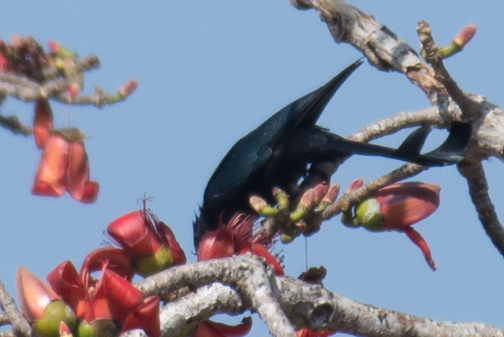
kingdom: Animalia
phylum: Chordata
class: Aves
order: Passeriformes
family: Dicruridae
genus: Dicrurus
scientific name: Dicrurus hottentottus
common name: Hair-crested drongo
